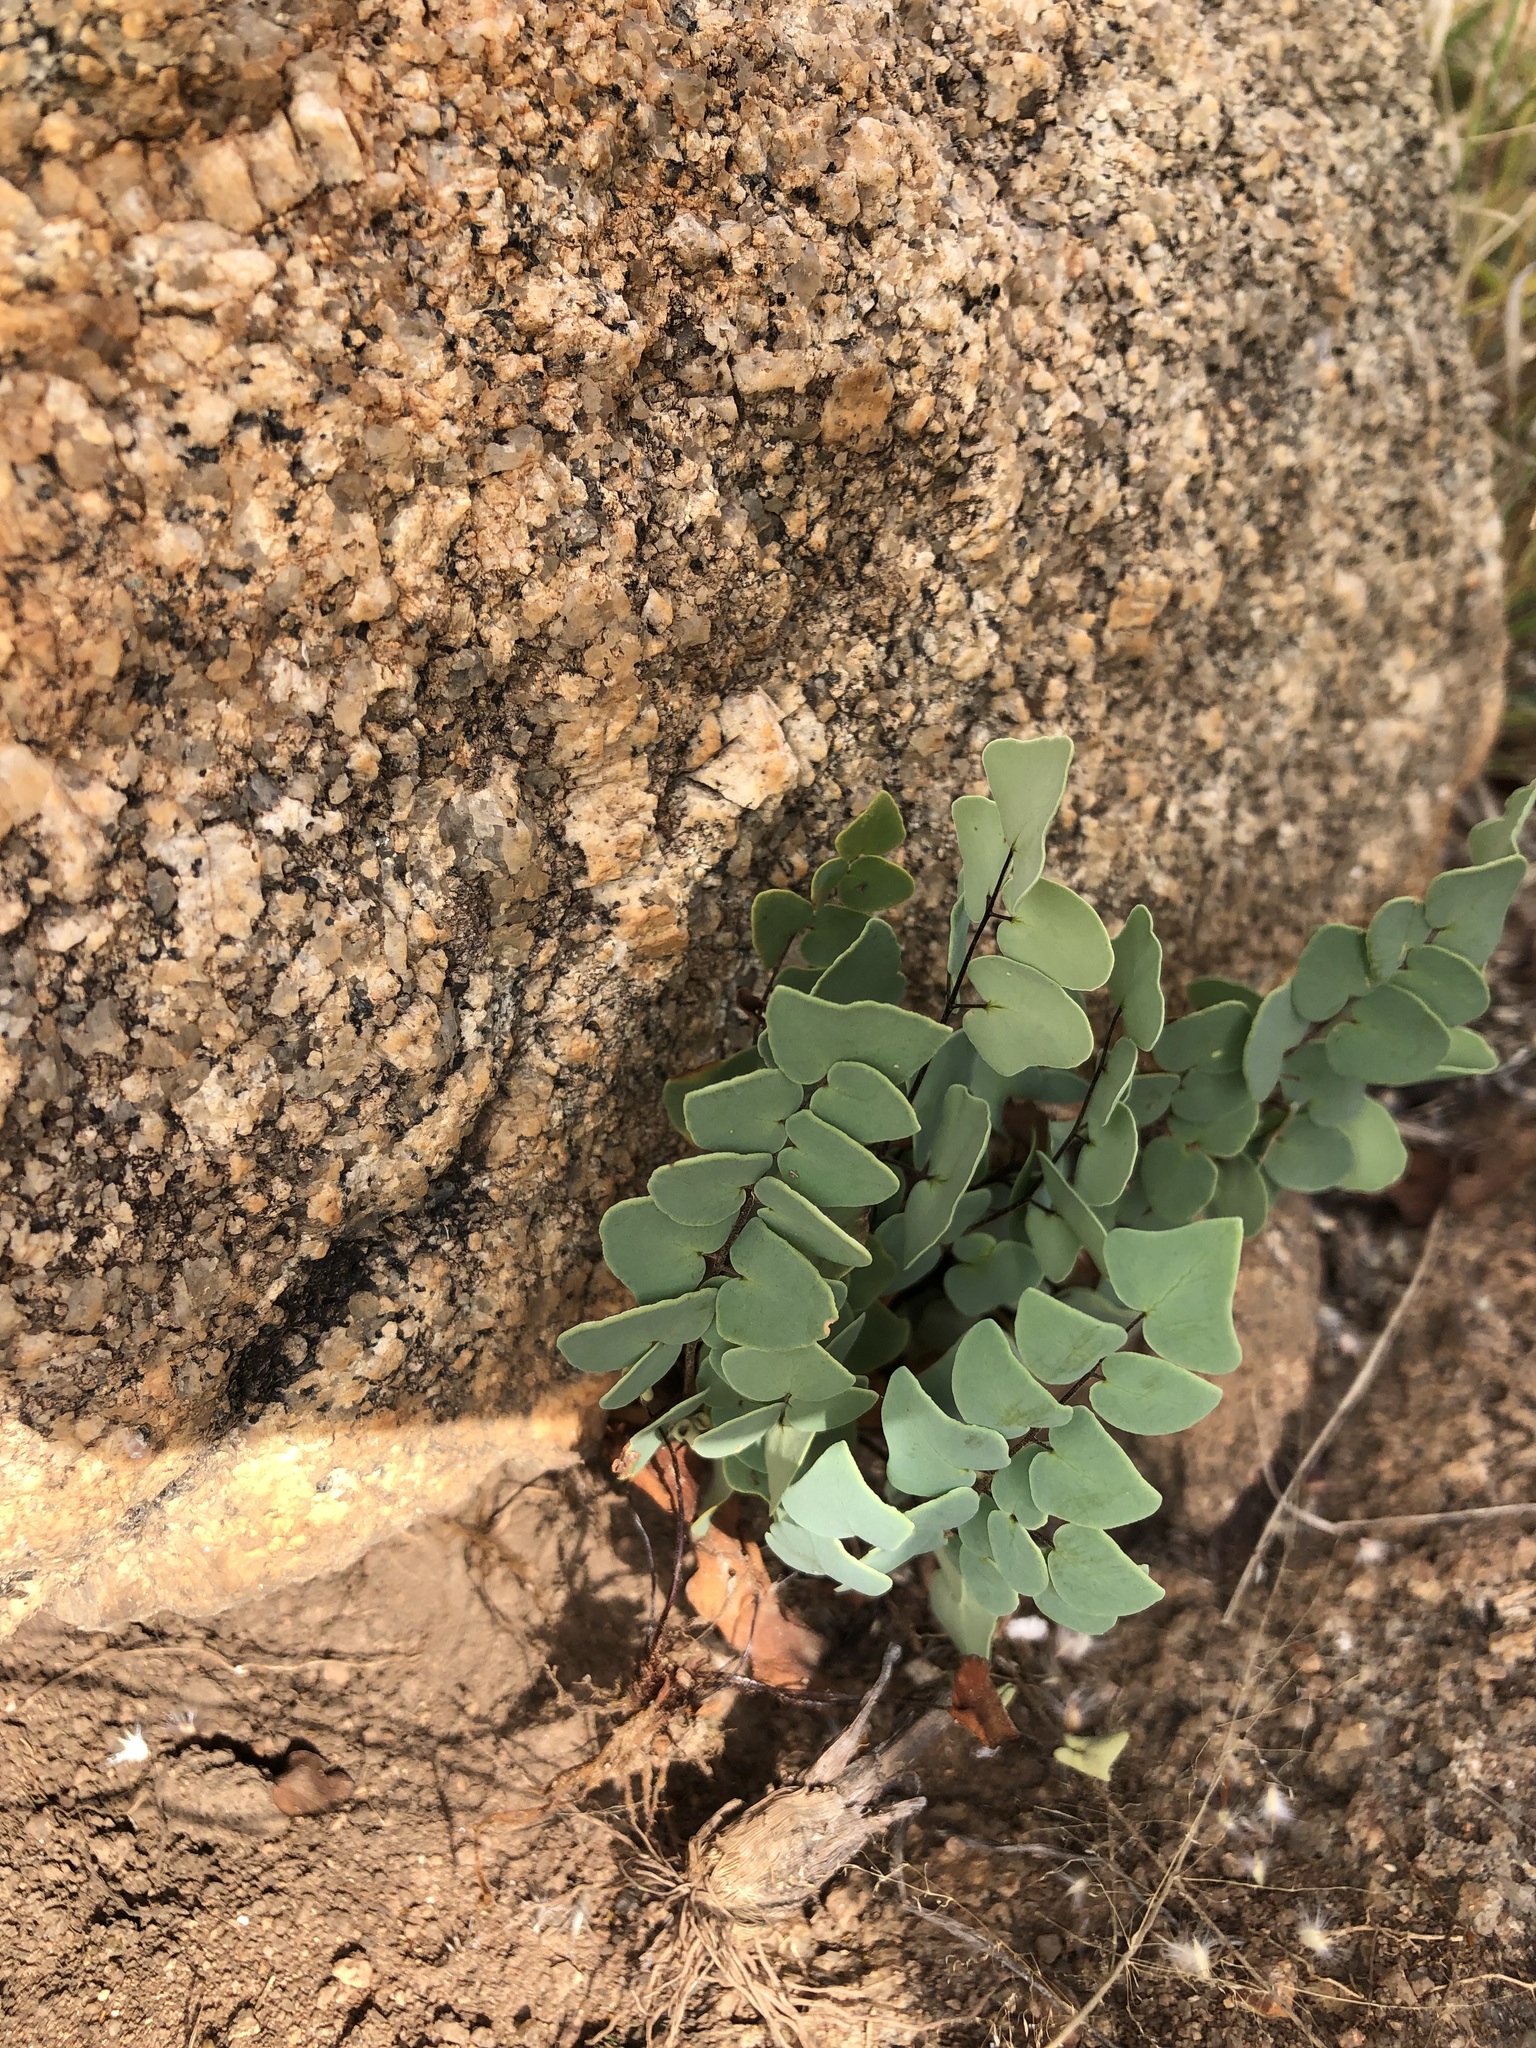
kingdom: Plantae
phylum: Tracheophyta
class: Polypodiopsida
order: Polypodiales
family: Pteridaceae
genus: Pellaea
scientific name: Pellaea calomelanos
